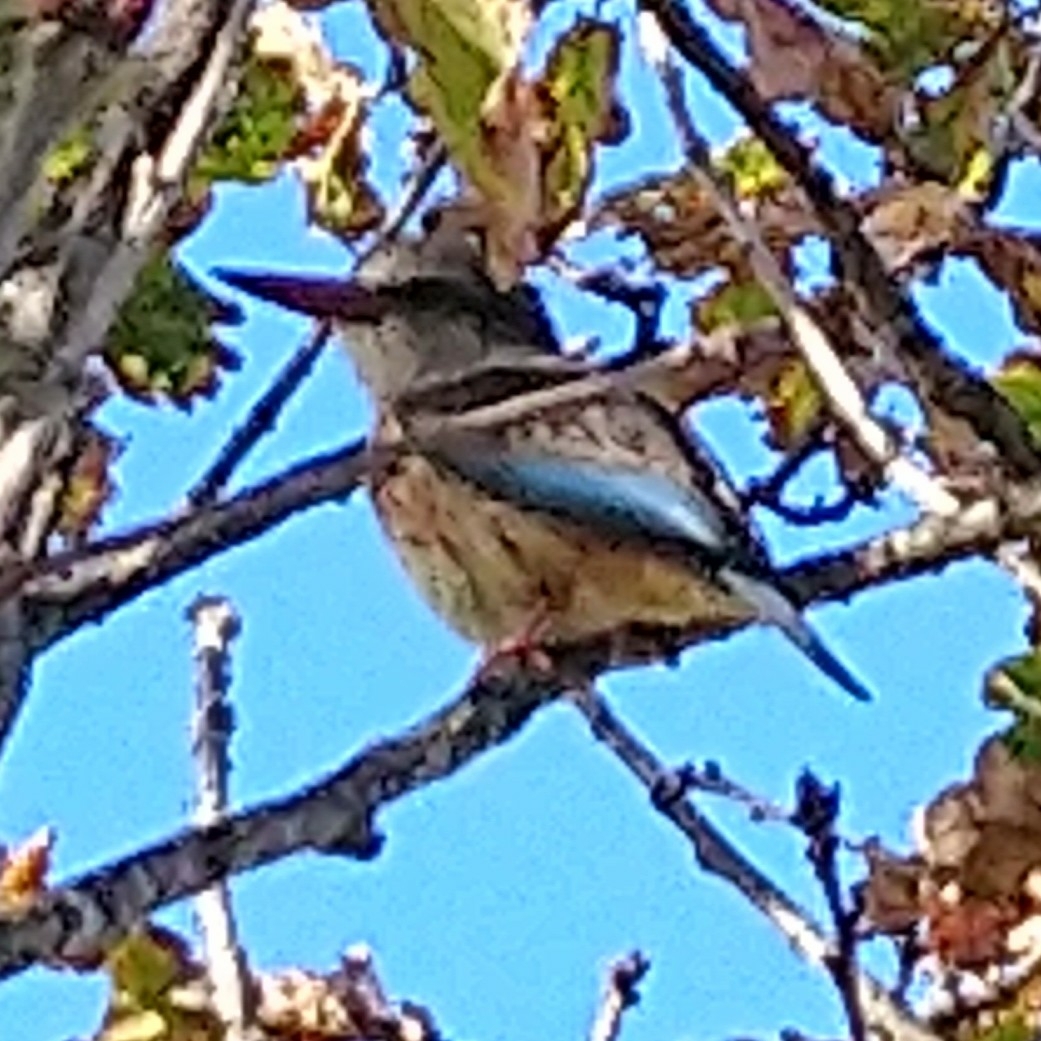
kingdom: Animalia
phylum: Chordata
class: Aves
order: Coraciiformes
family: Alcedinidae
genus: Halcyon
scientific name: Halcyon albiventris
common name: Brown-hooded kingfisher
